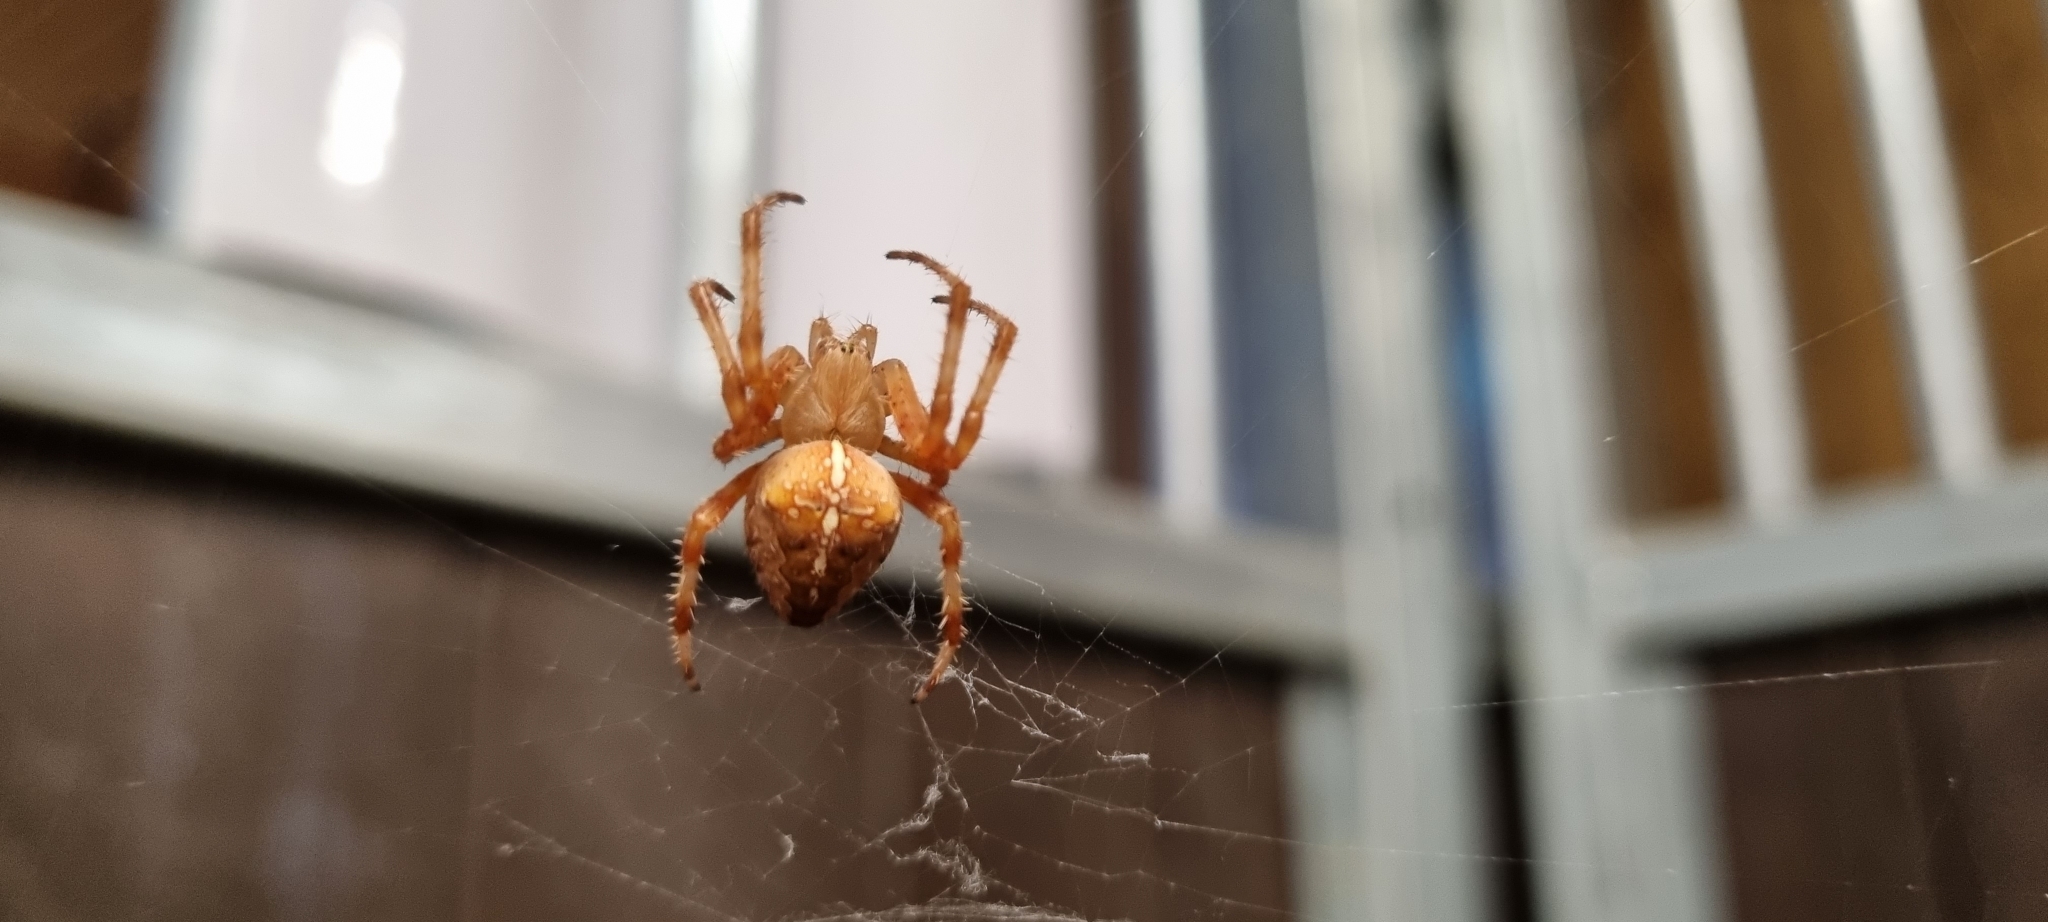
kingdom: Animalia
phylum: Arthropoda
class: Arachnida
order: Araneae
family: Araneidae
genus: Araneus
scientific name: Araneus diadematus
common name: Cross orbweaver
